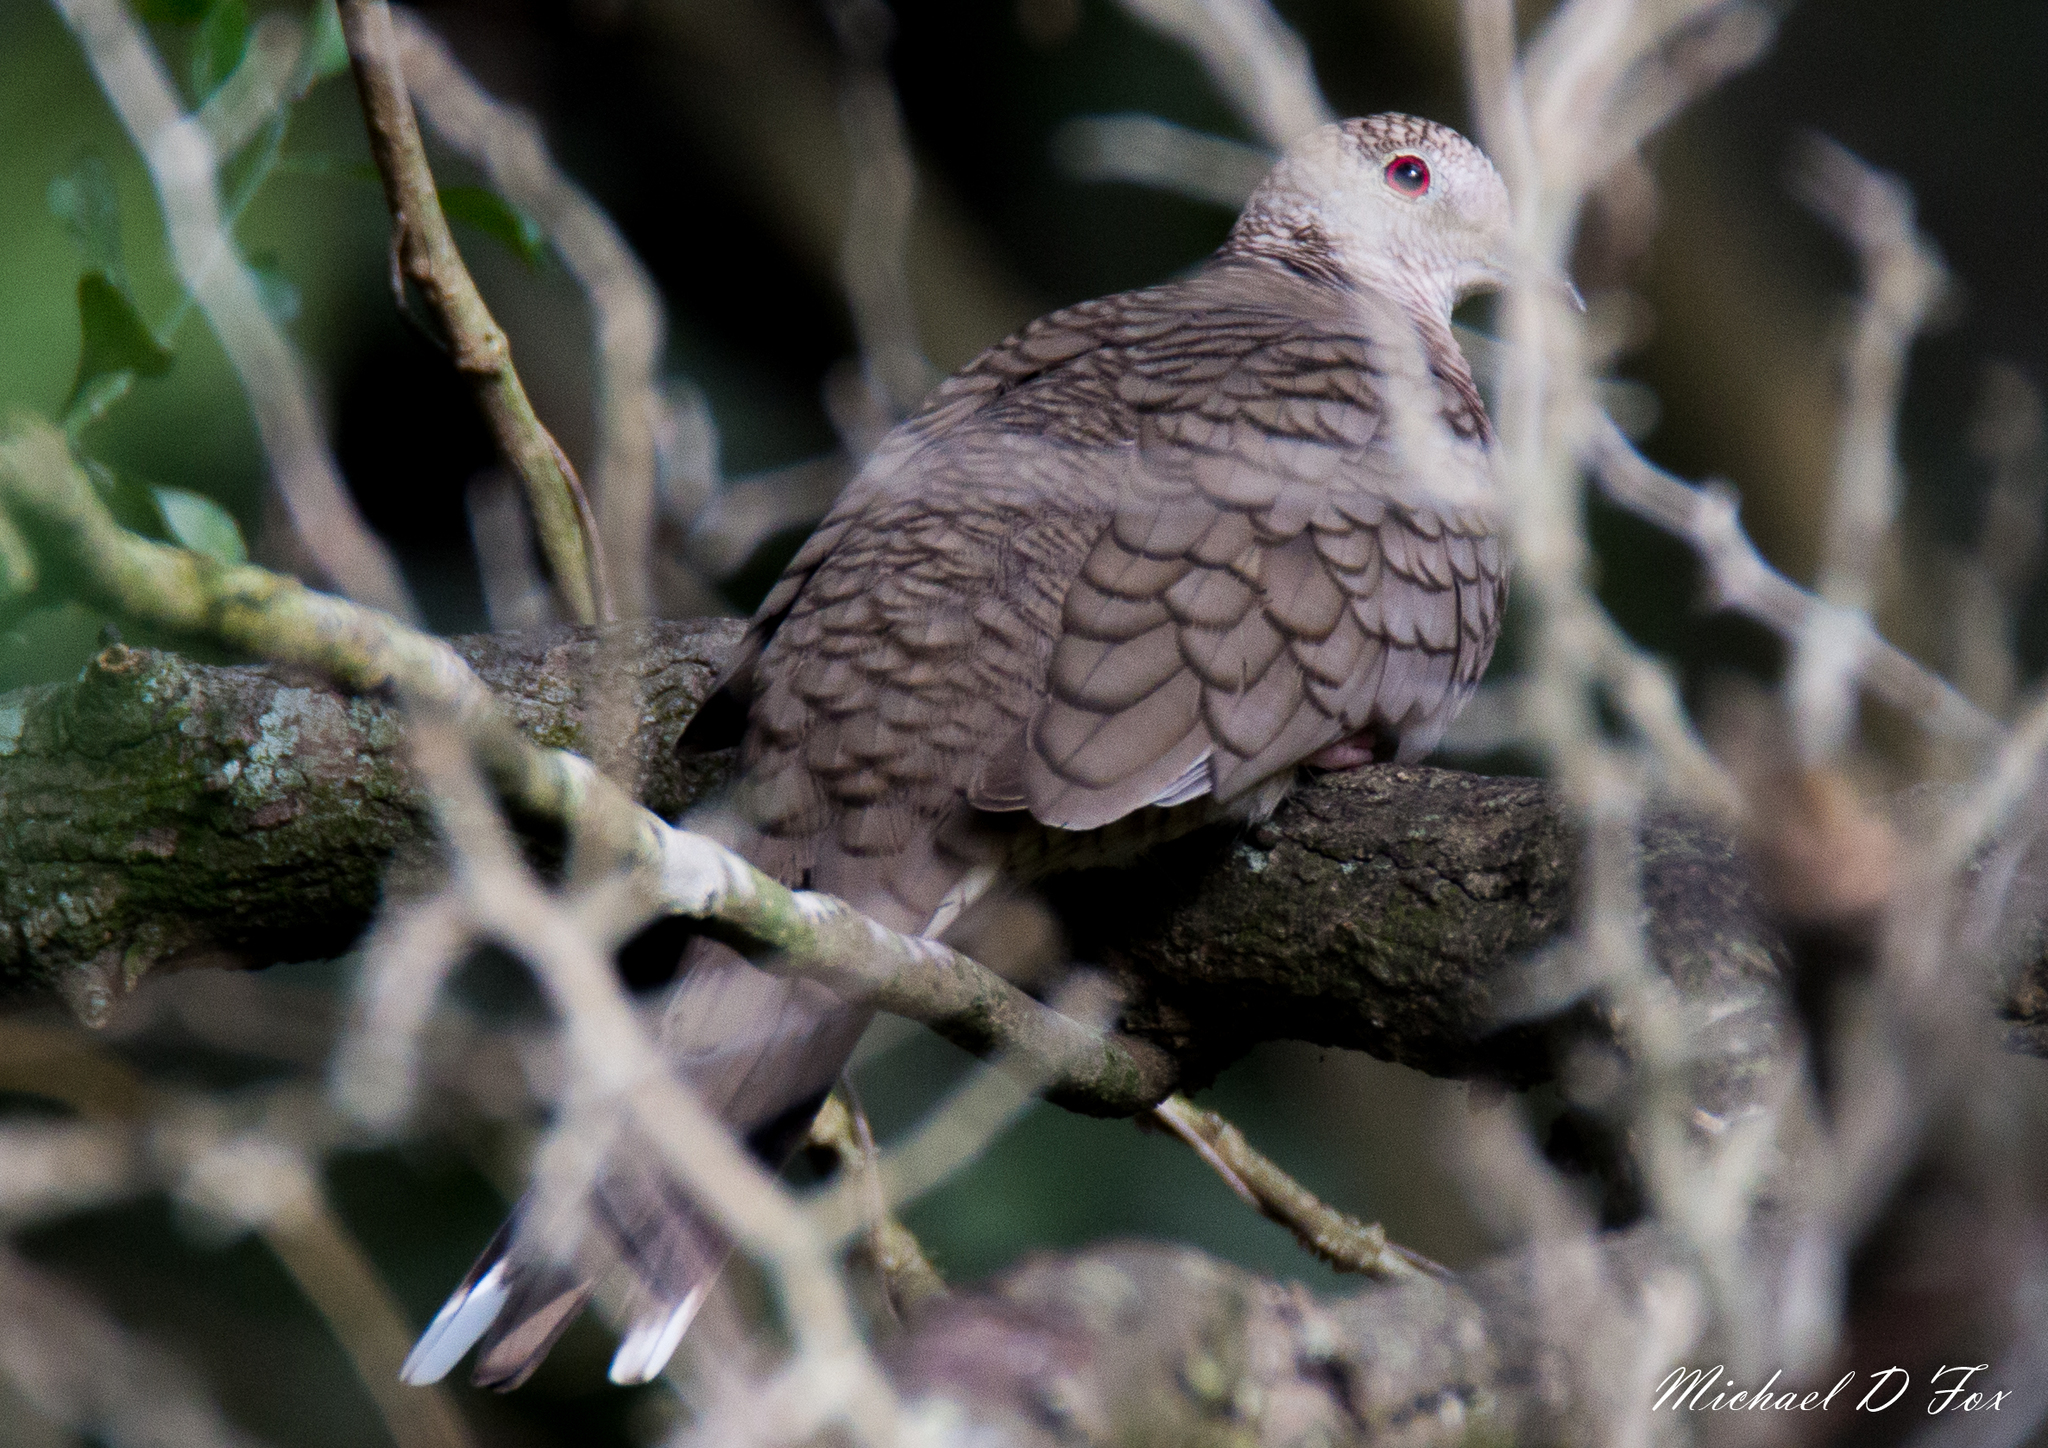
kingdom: Animalia
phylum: Chordata
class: Aves
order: Columbiformes
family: Columbidae
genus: Columbina
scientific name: Columbina inca
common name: Inca dove
